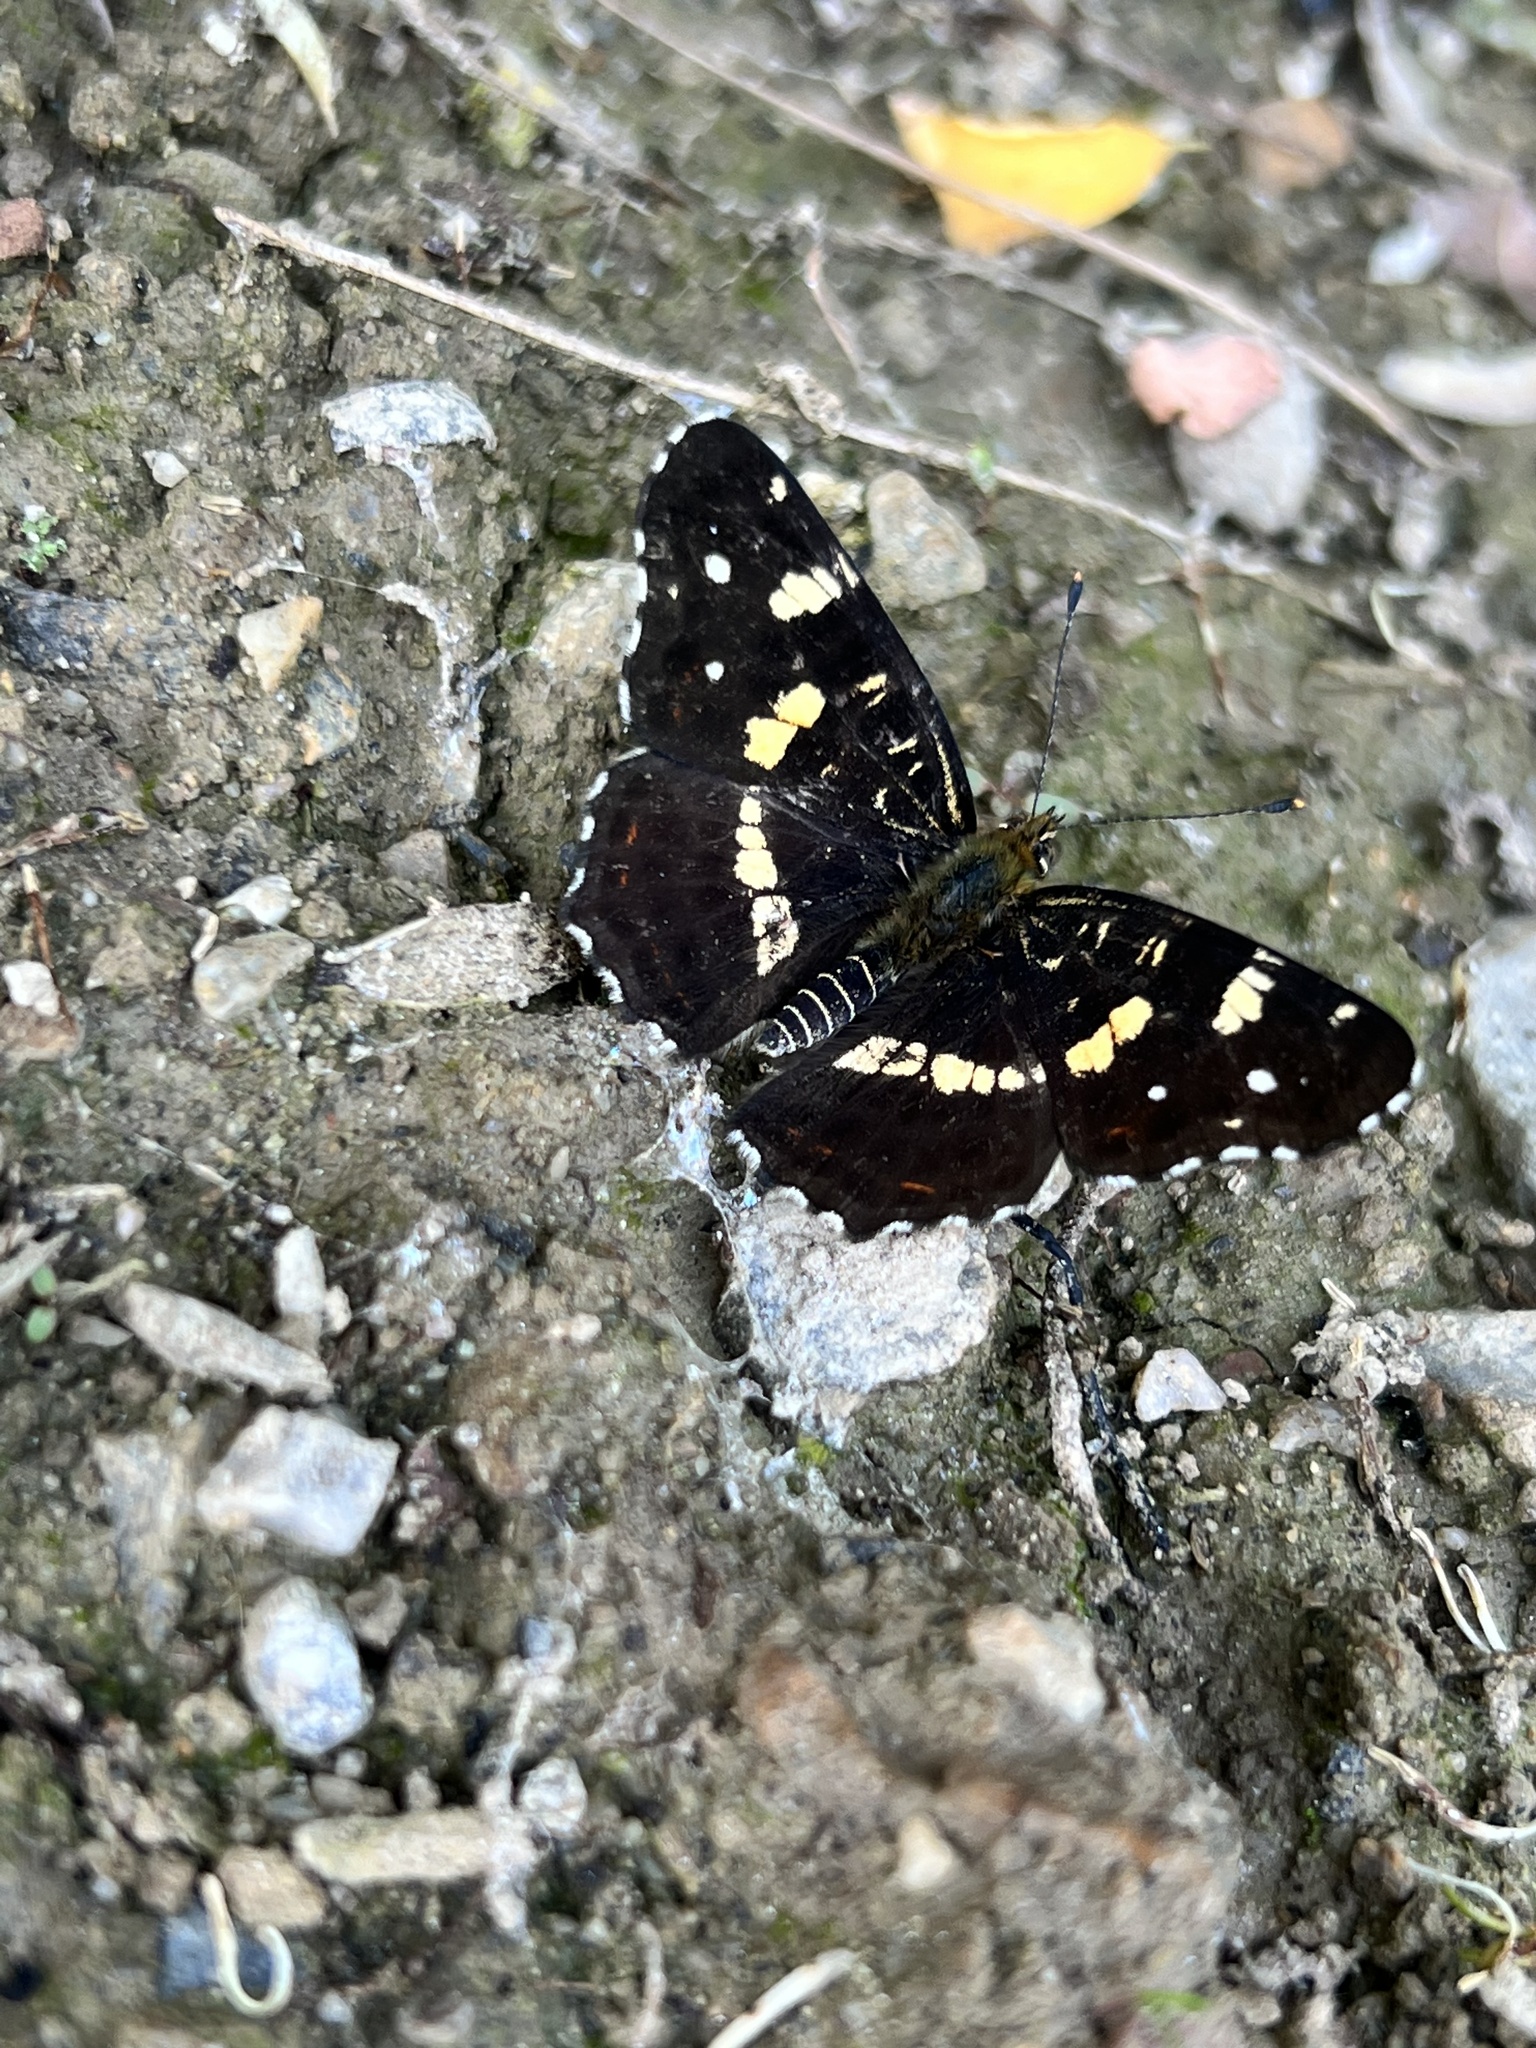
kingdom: Animalia
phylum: Arthropoda
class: Insecta
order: Lepidoptera
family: Nymphalidae
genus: Araschnia
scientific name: Araschnia levana
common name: Map butterfly
